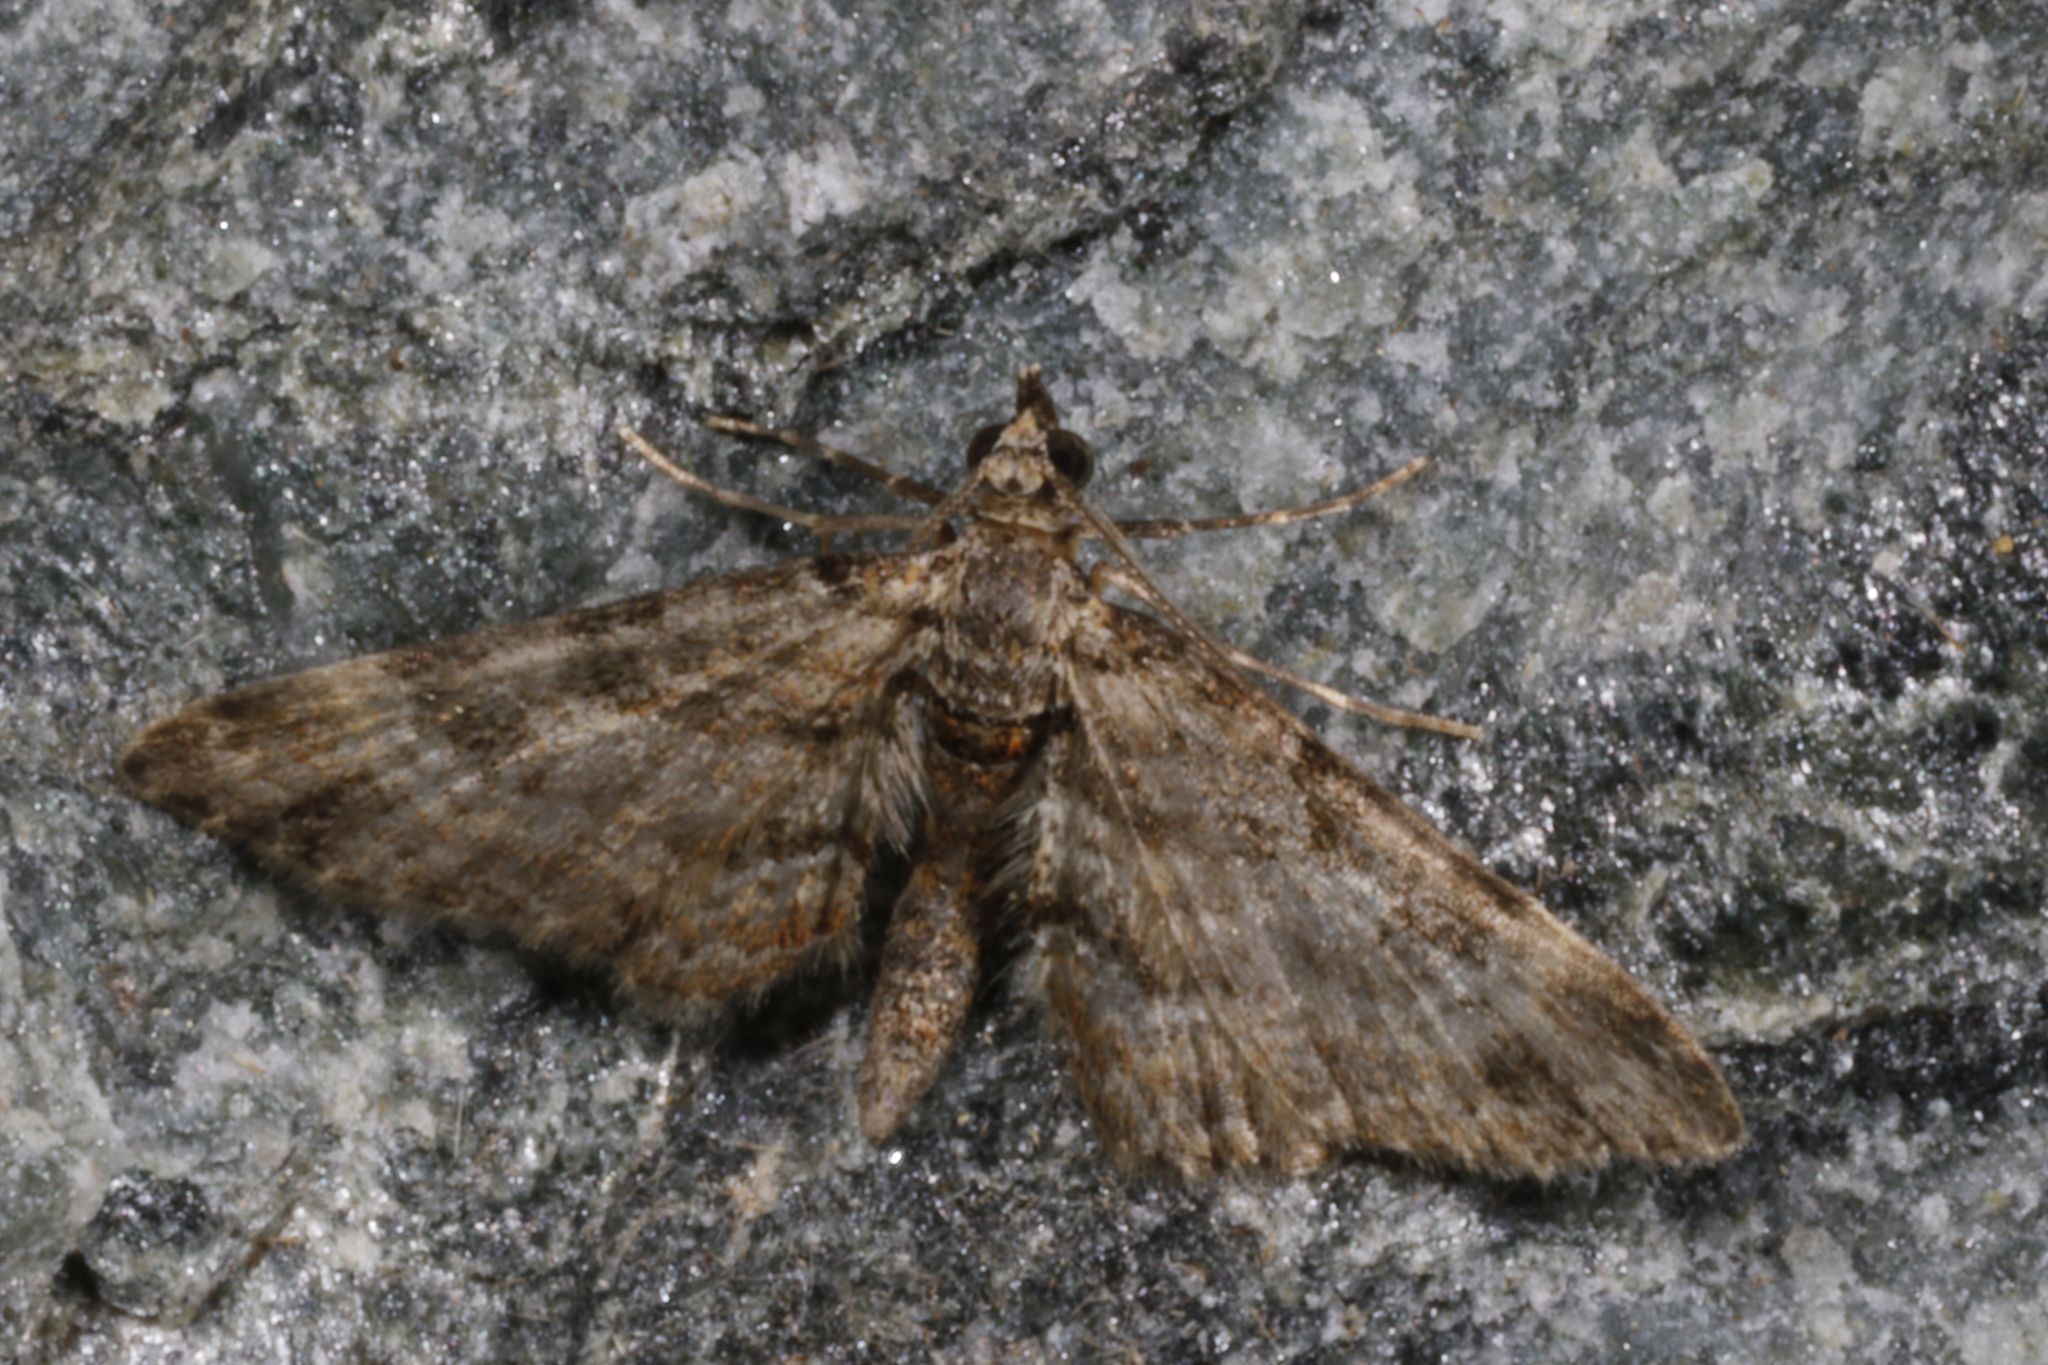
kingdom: Animalia
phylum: Arthropoda
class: Insecta
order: Lepidoptera
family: Geometridae
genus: Gymnoscelis
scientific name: Gymnoscelis rufifasciata
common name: Double-striped pug
